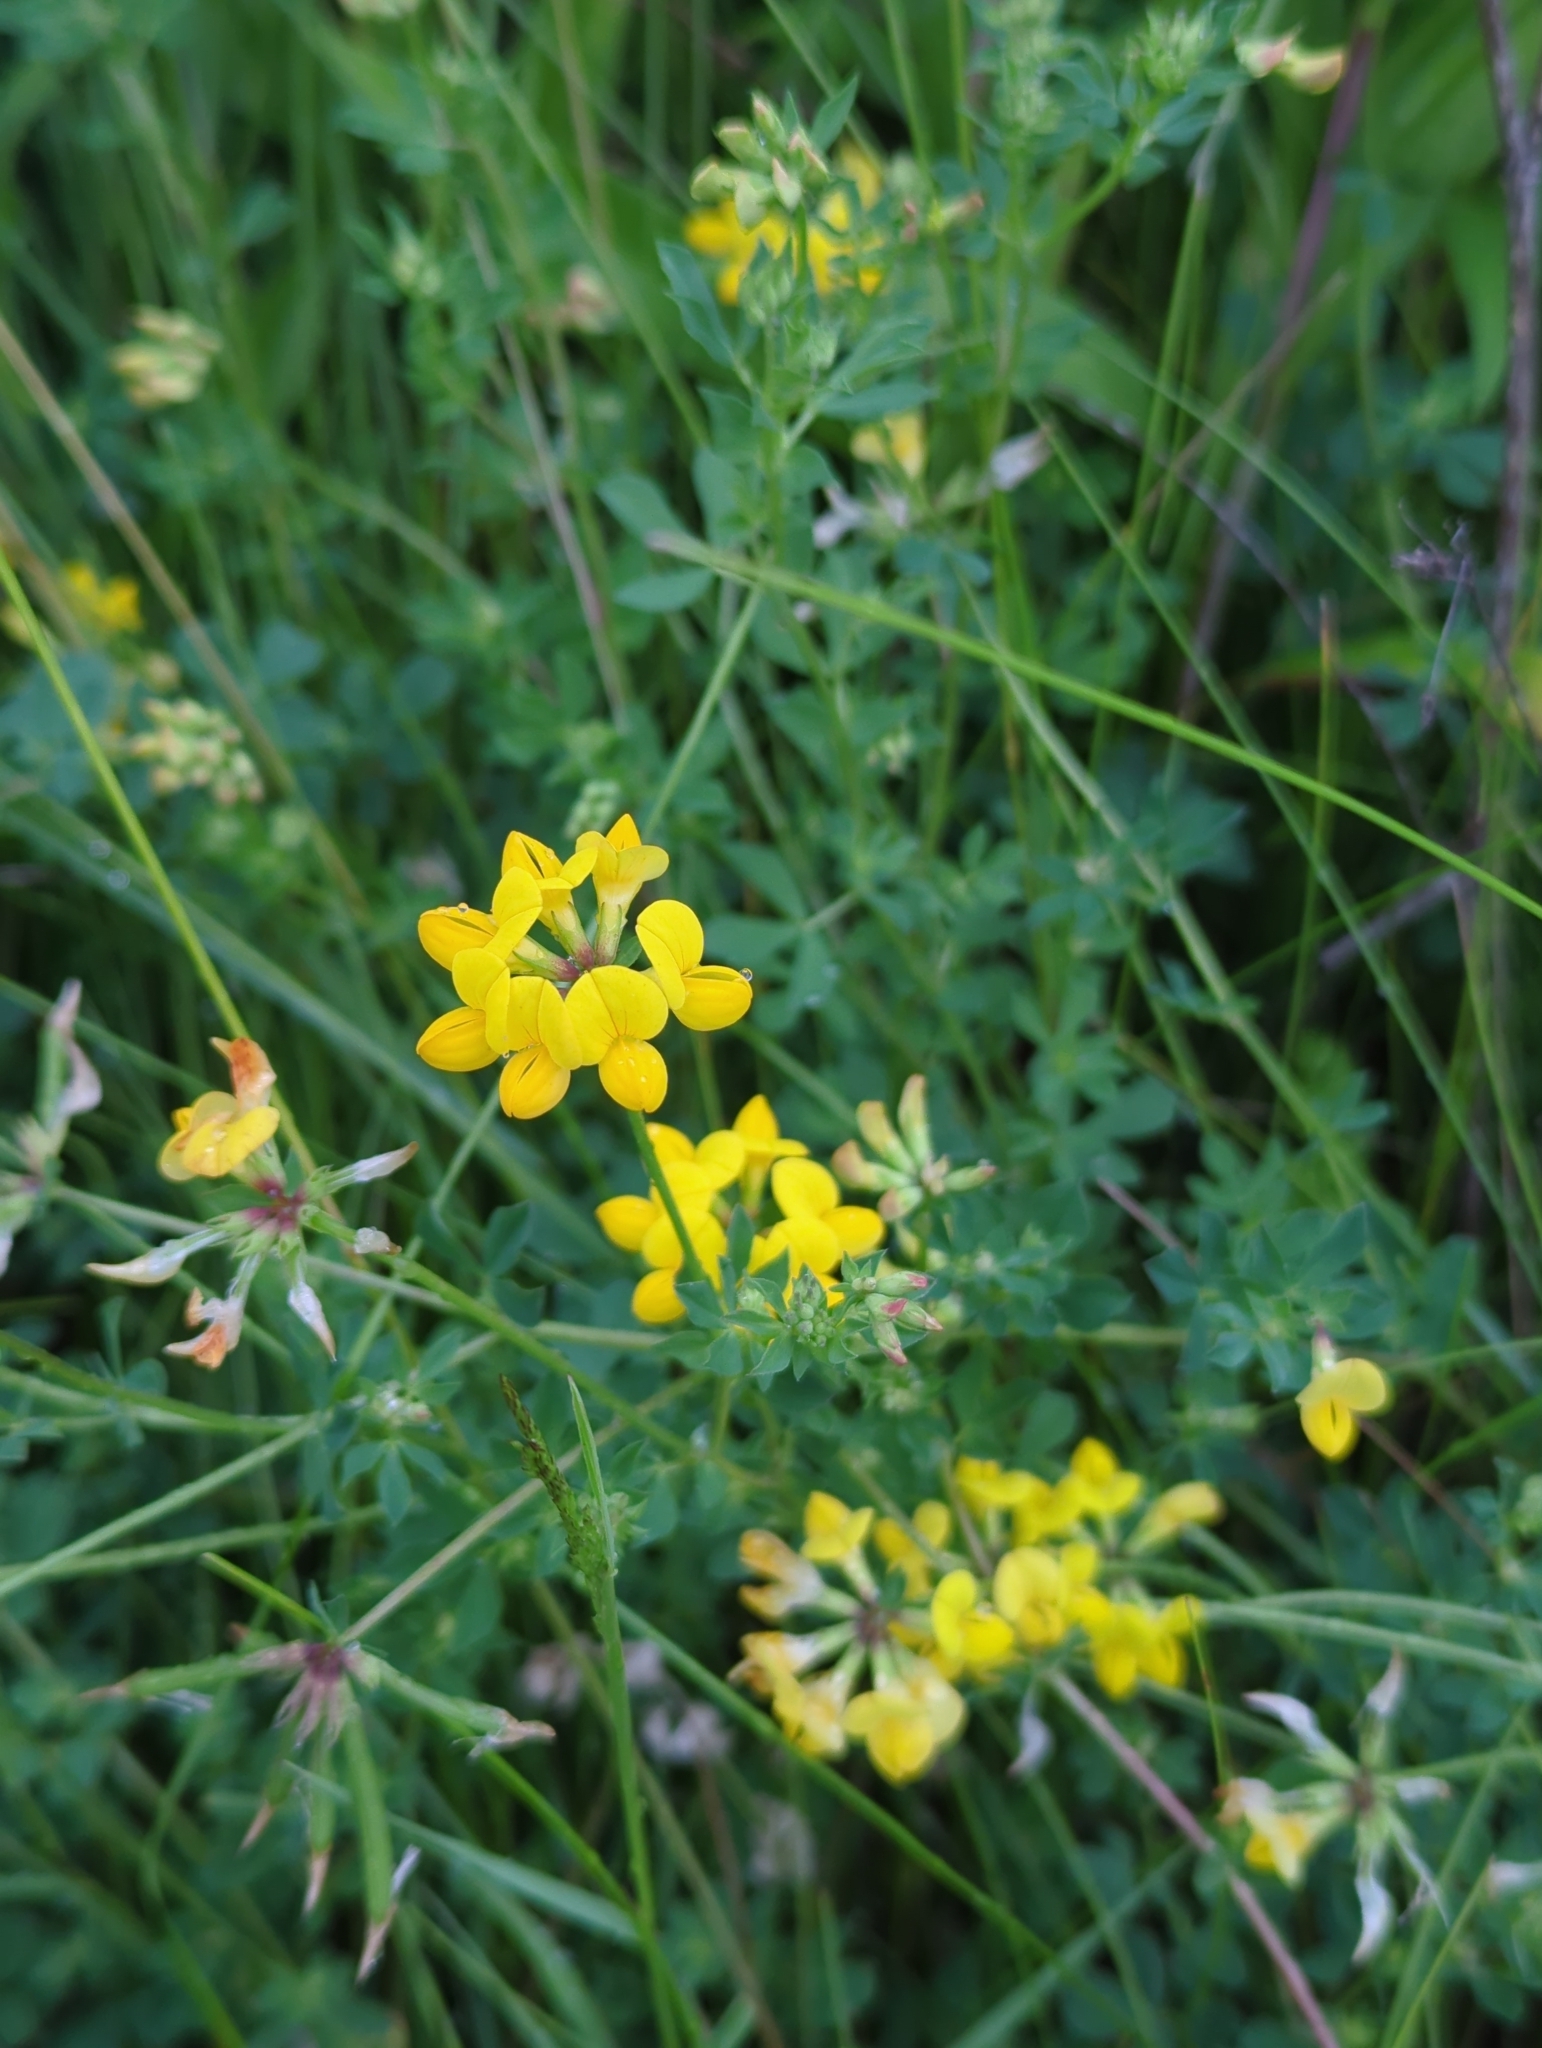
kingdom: Plantae
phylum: Tracheophyta
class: Magnoliopsida
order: Fabales
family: Fabaceae
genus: Lotus
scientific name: Lotus corniculatus
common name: Common bird's-foot-trefoil
